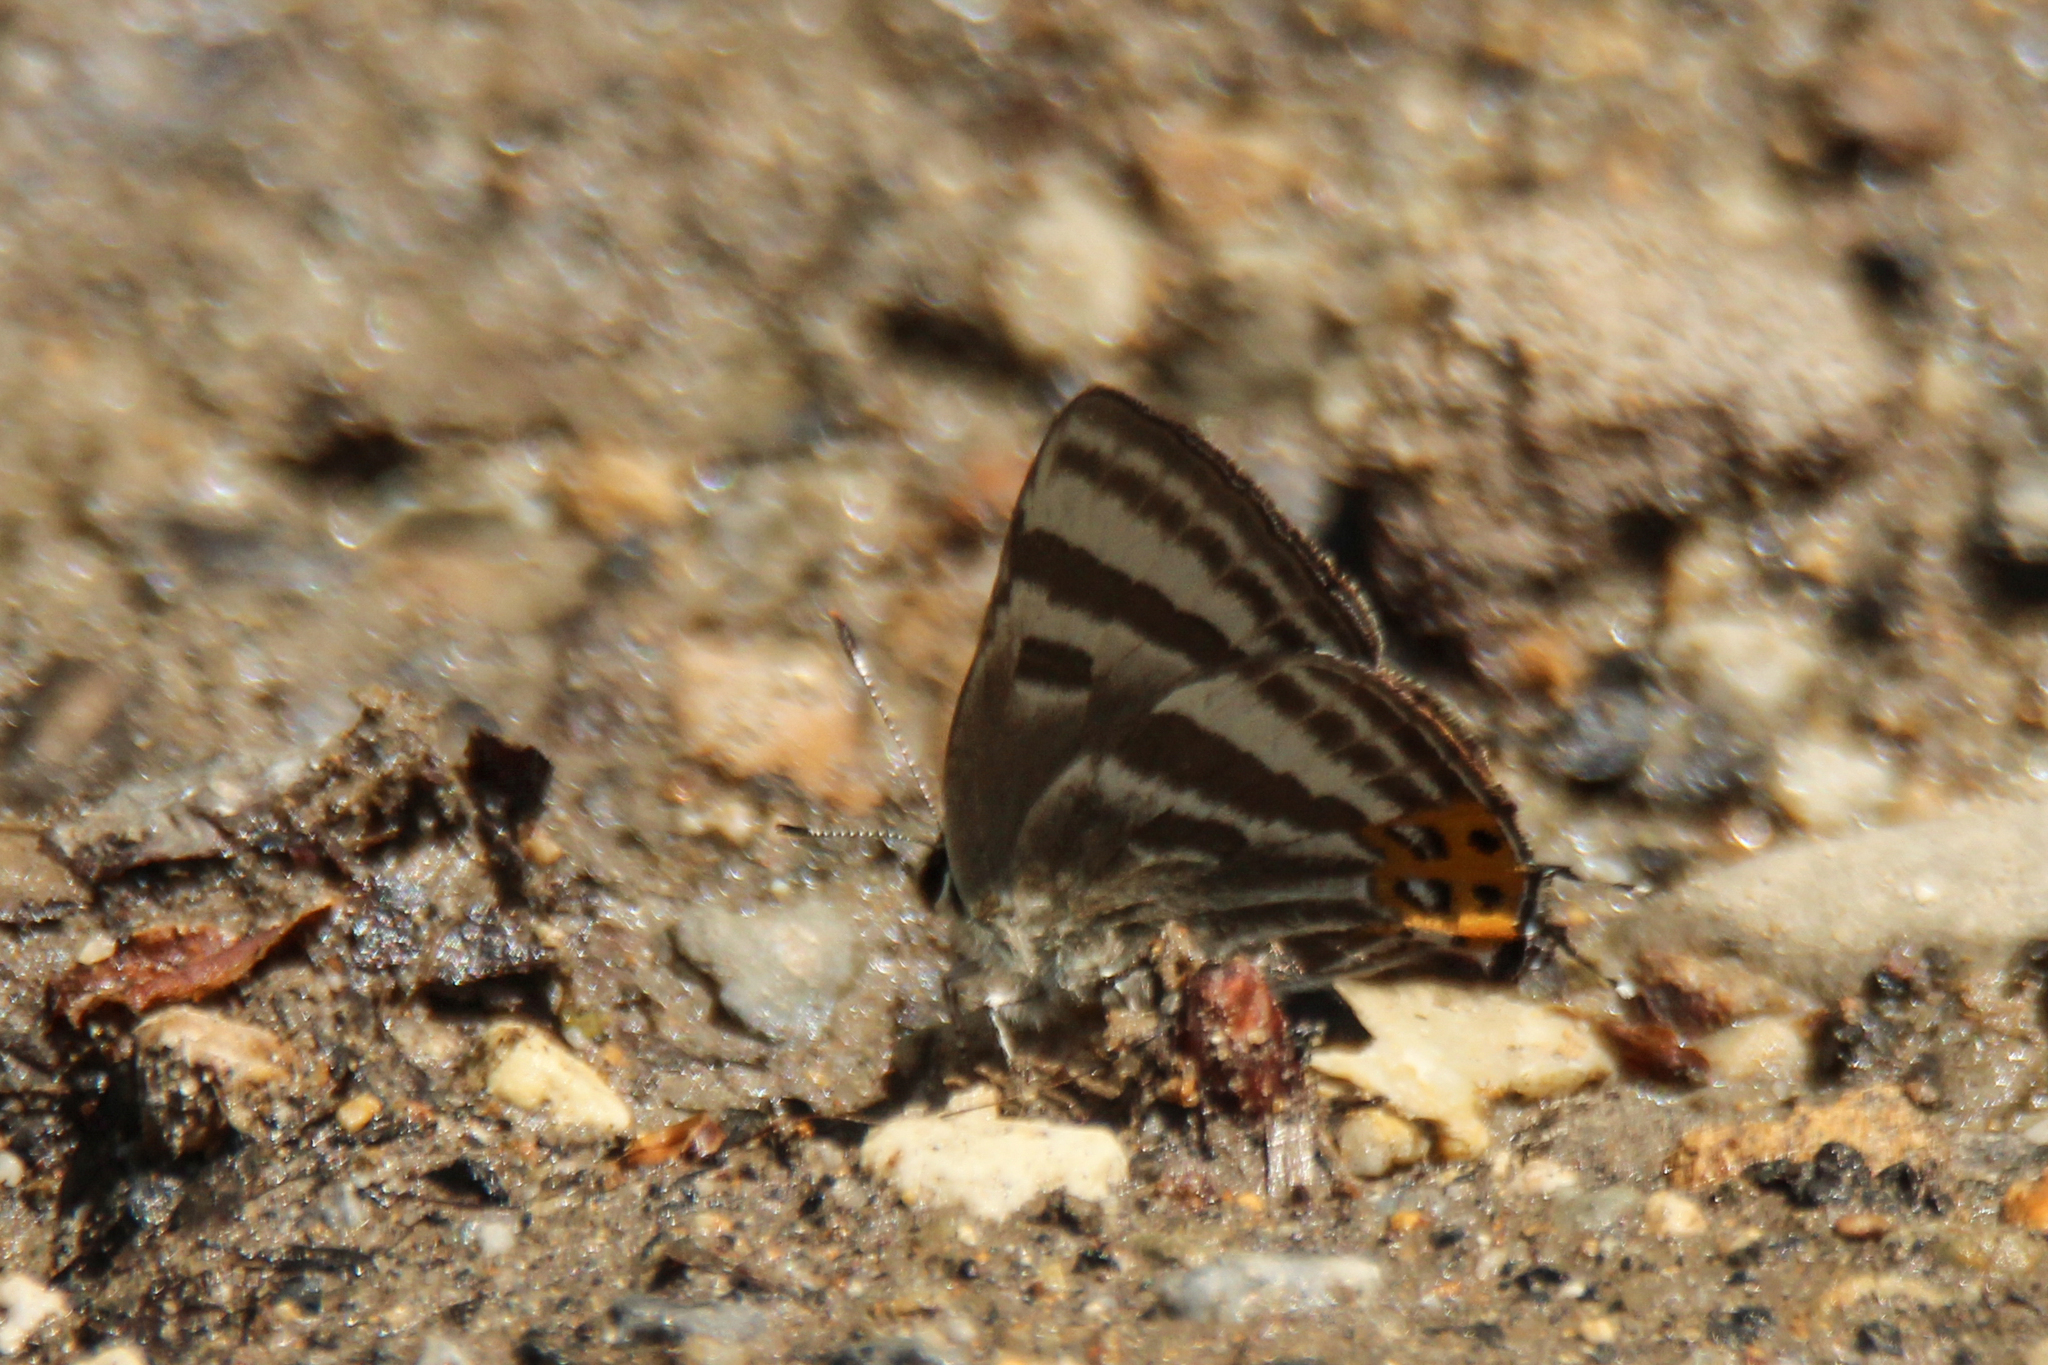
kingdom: Animalia
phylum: Arthropoda
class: Insecta
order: Lepidoptera
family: Lycaenidae
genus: Rapala
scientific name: Rapala arata
